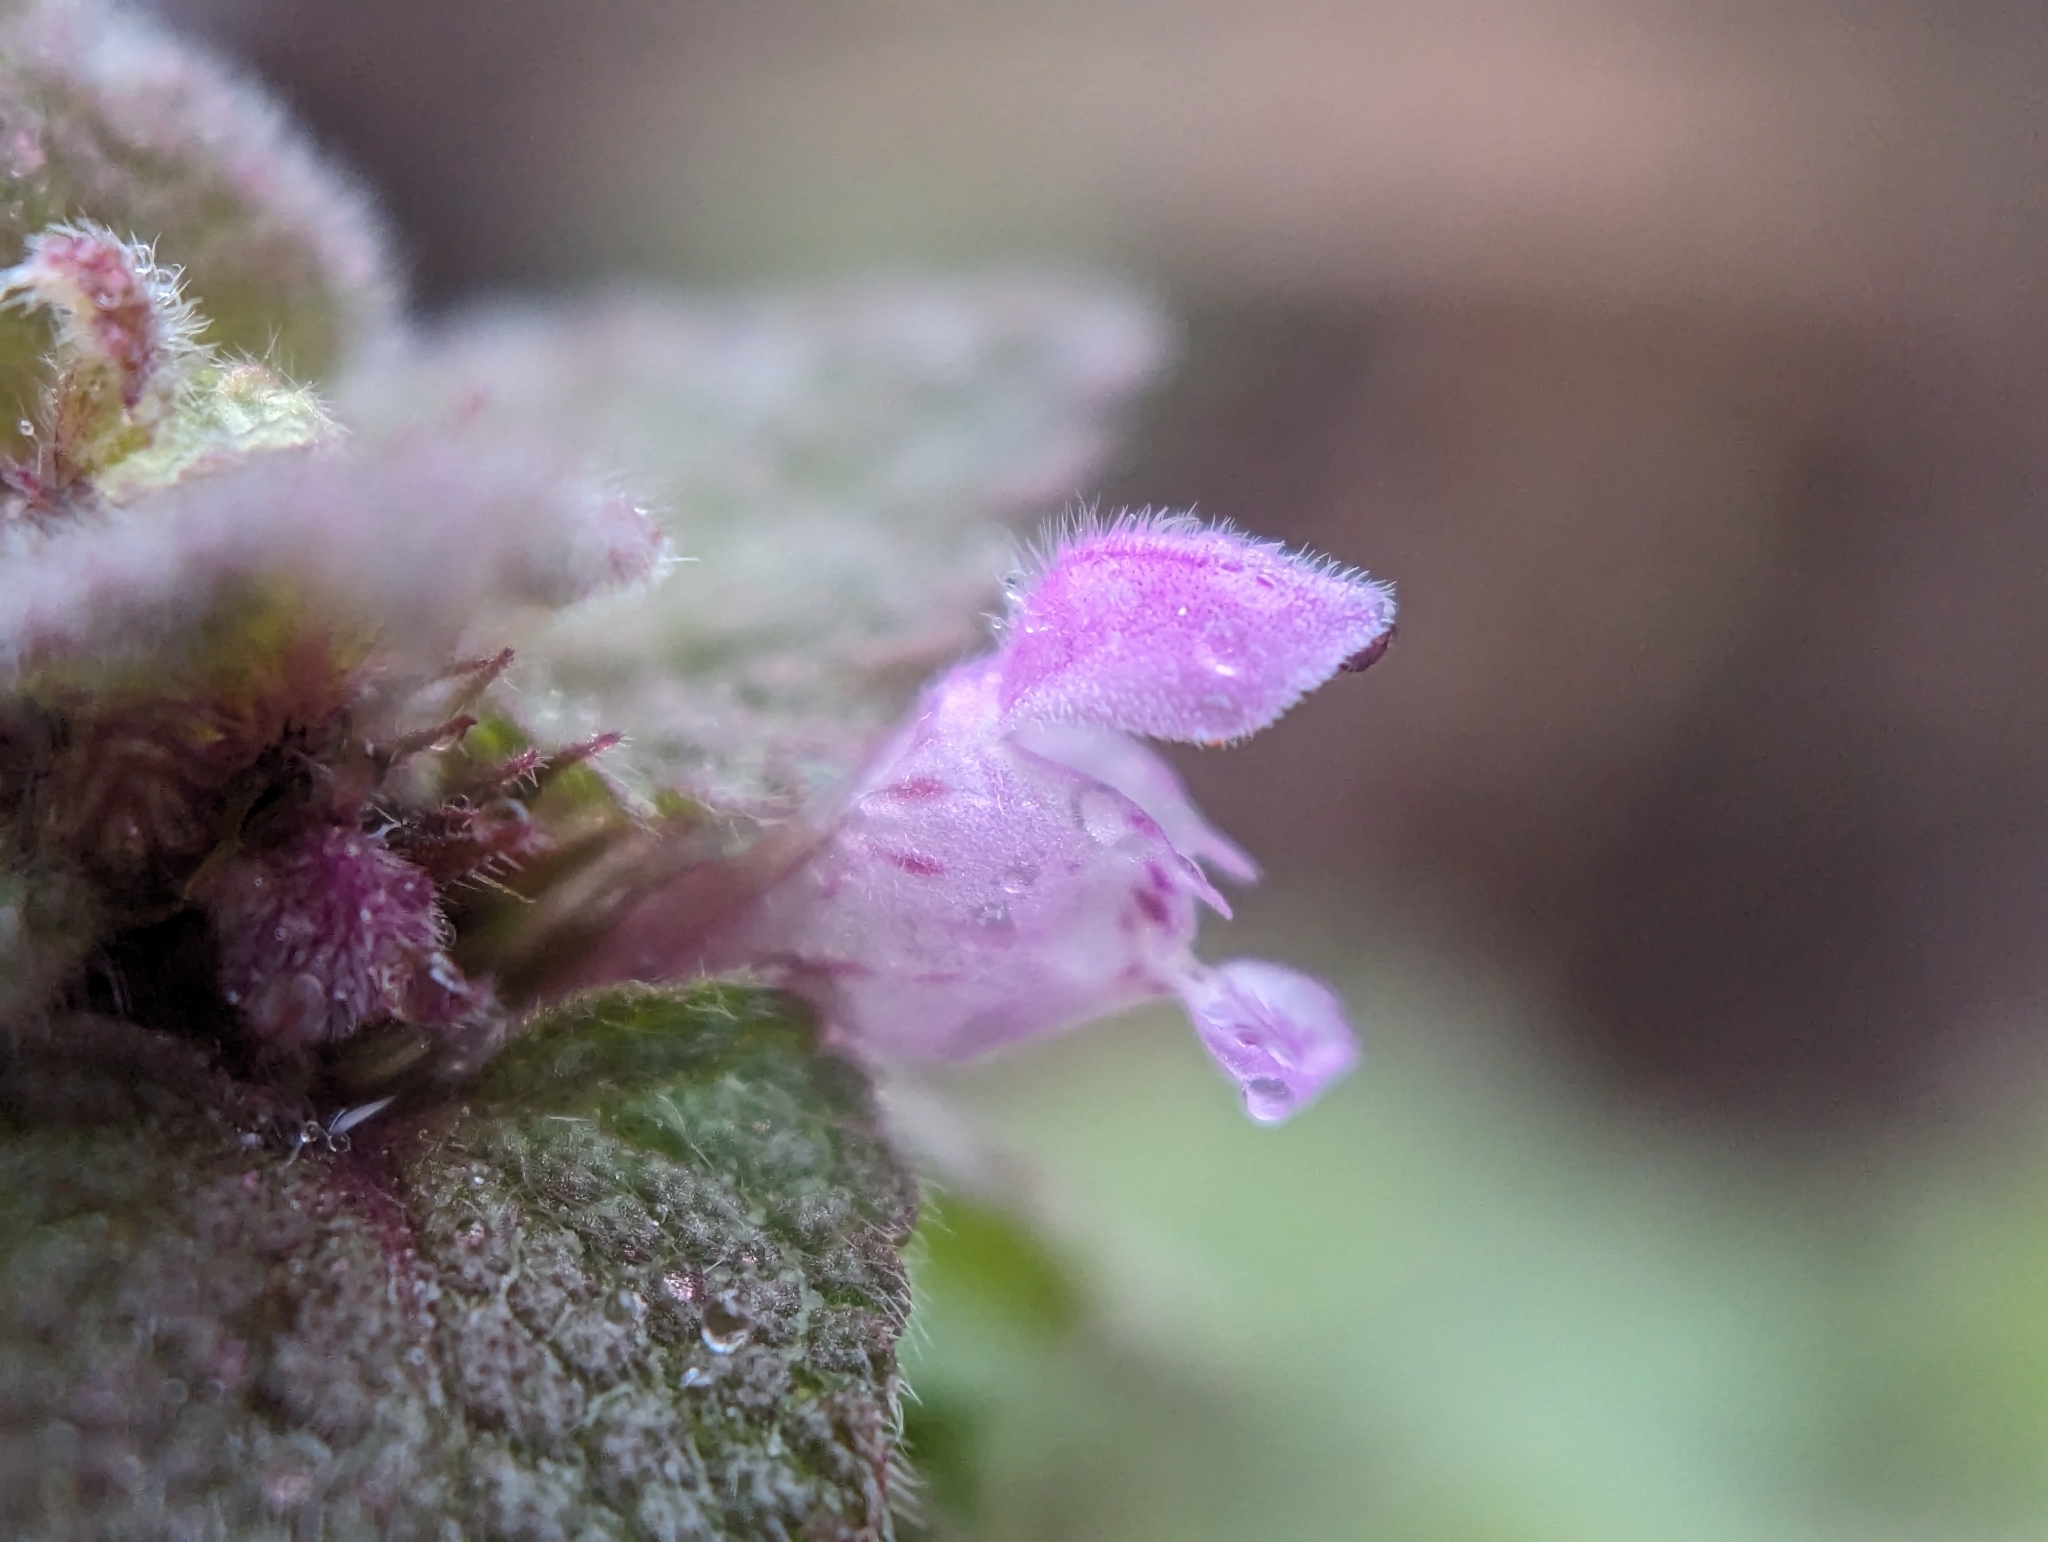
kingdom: Plantae
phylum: Tracheophyta
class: Magnoliopsida
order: Lamiales
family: Lamiaceae
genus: Lamium
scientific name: Lamium purpureum
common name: Red dead-nettle
